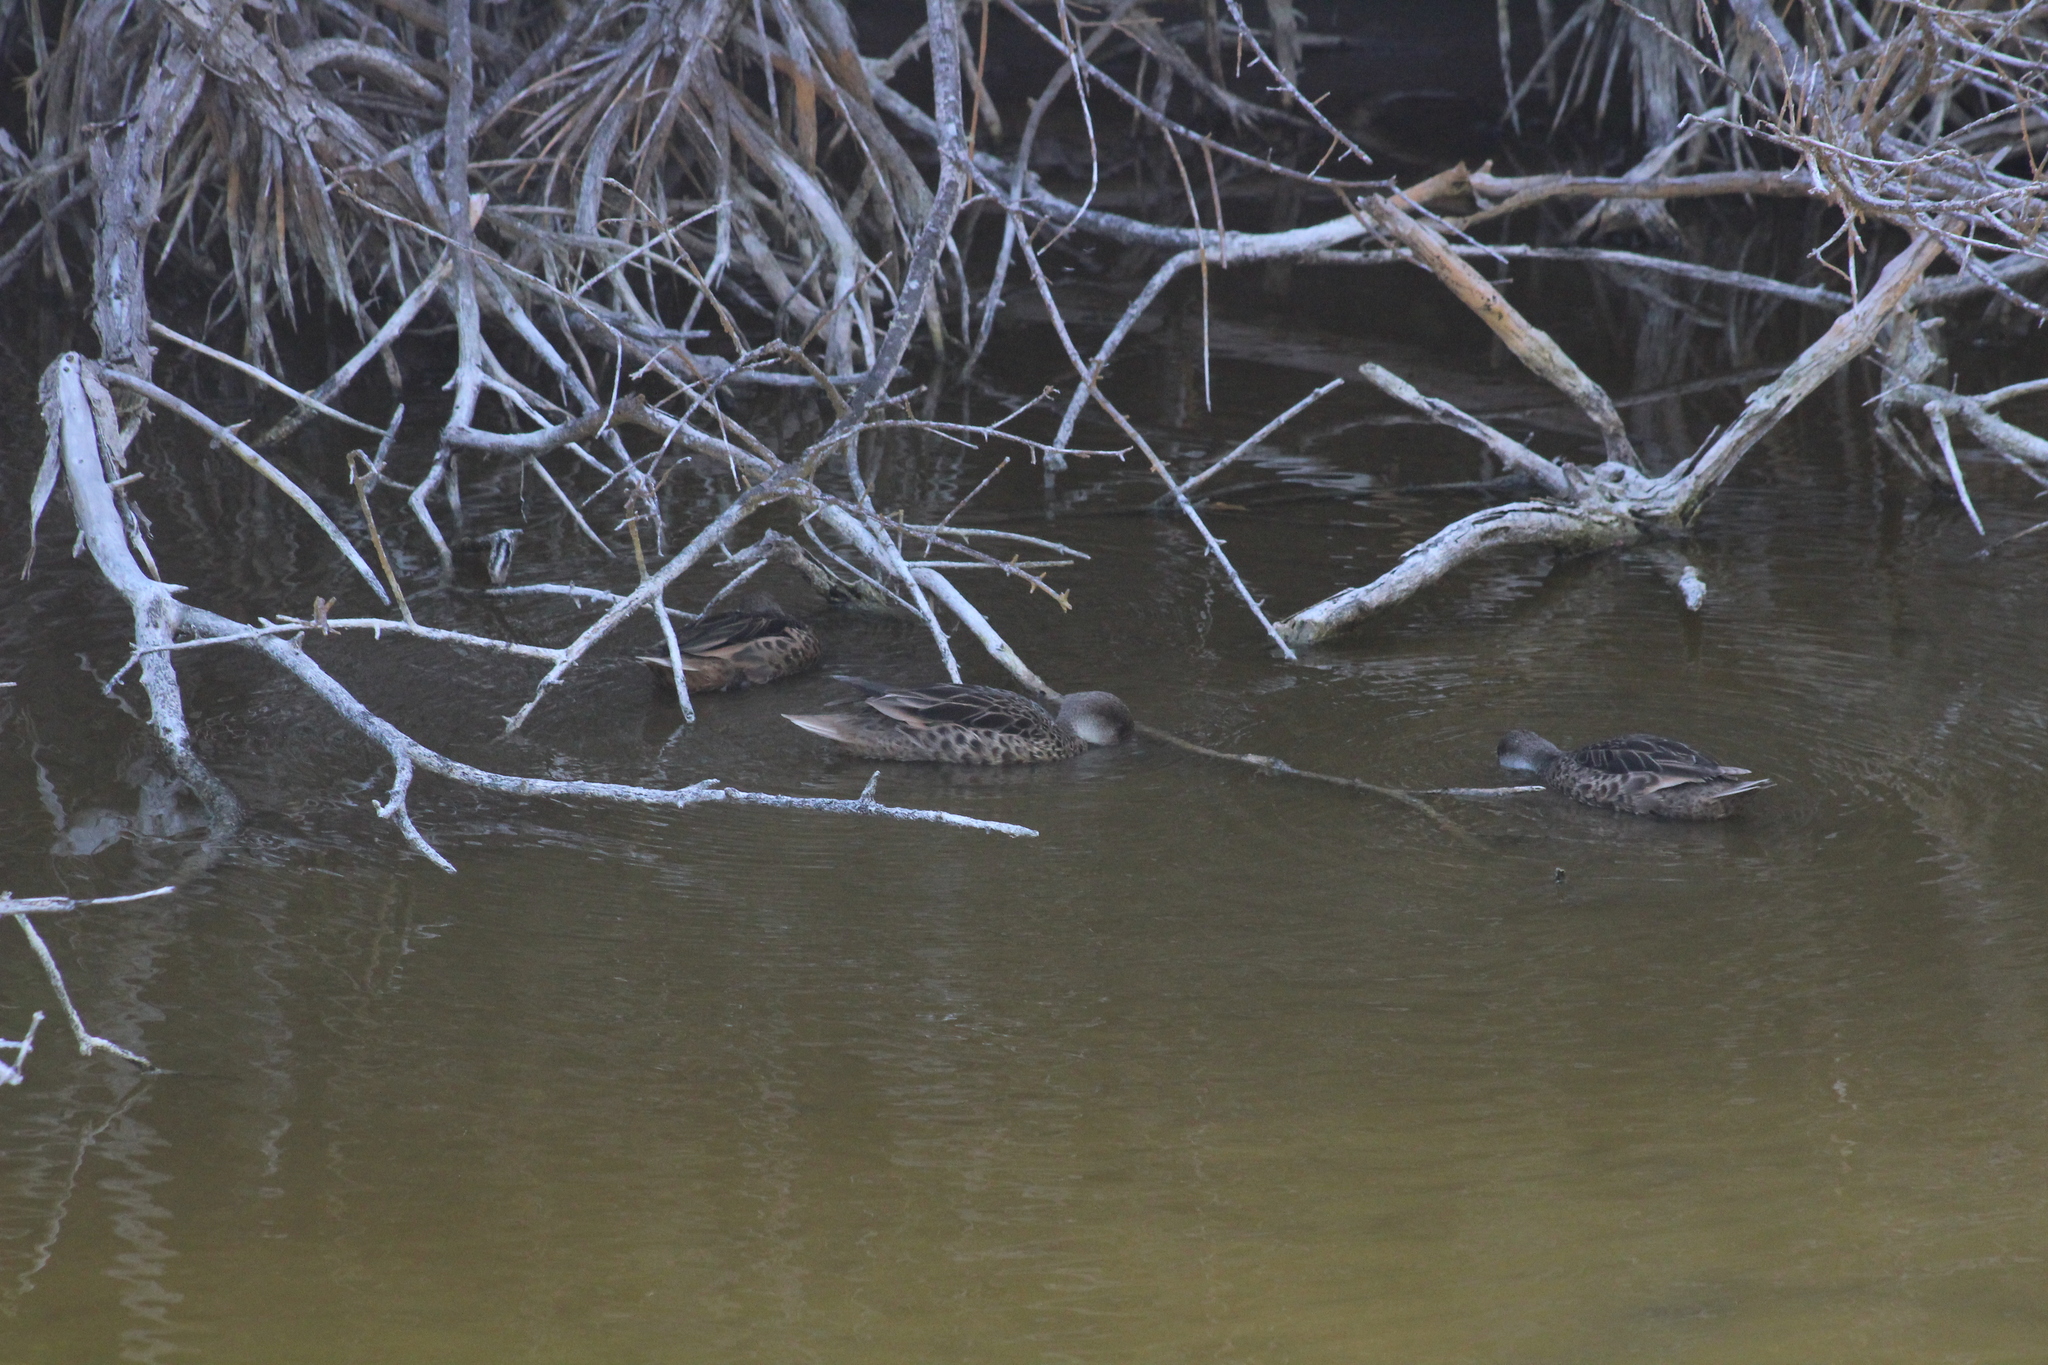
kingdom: Animalia
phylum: Chordata
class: Aves
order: Anseriformes
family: Anatidae
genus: Anas
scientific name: Anas bahamensis
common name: White-cheeked pintail
